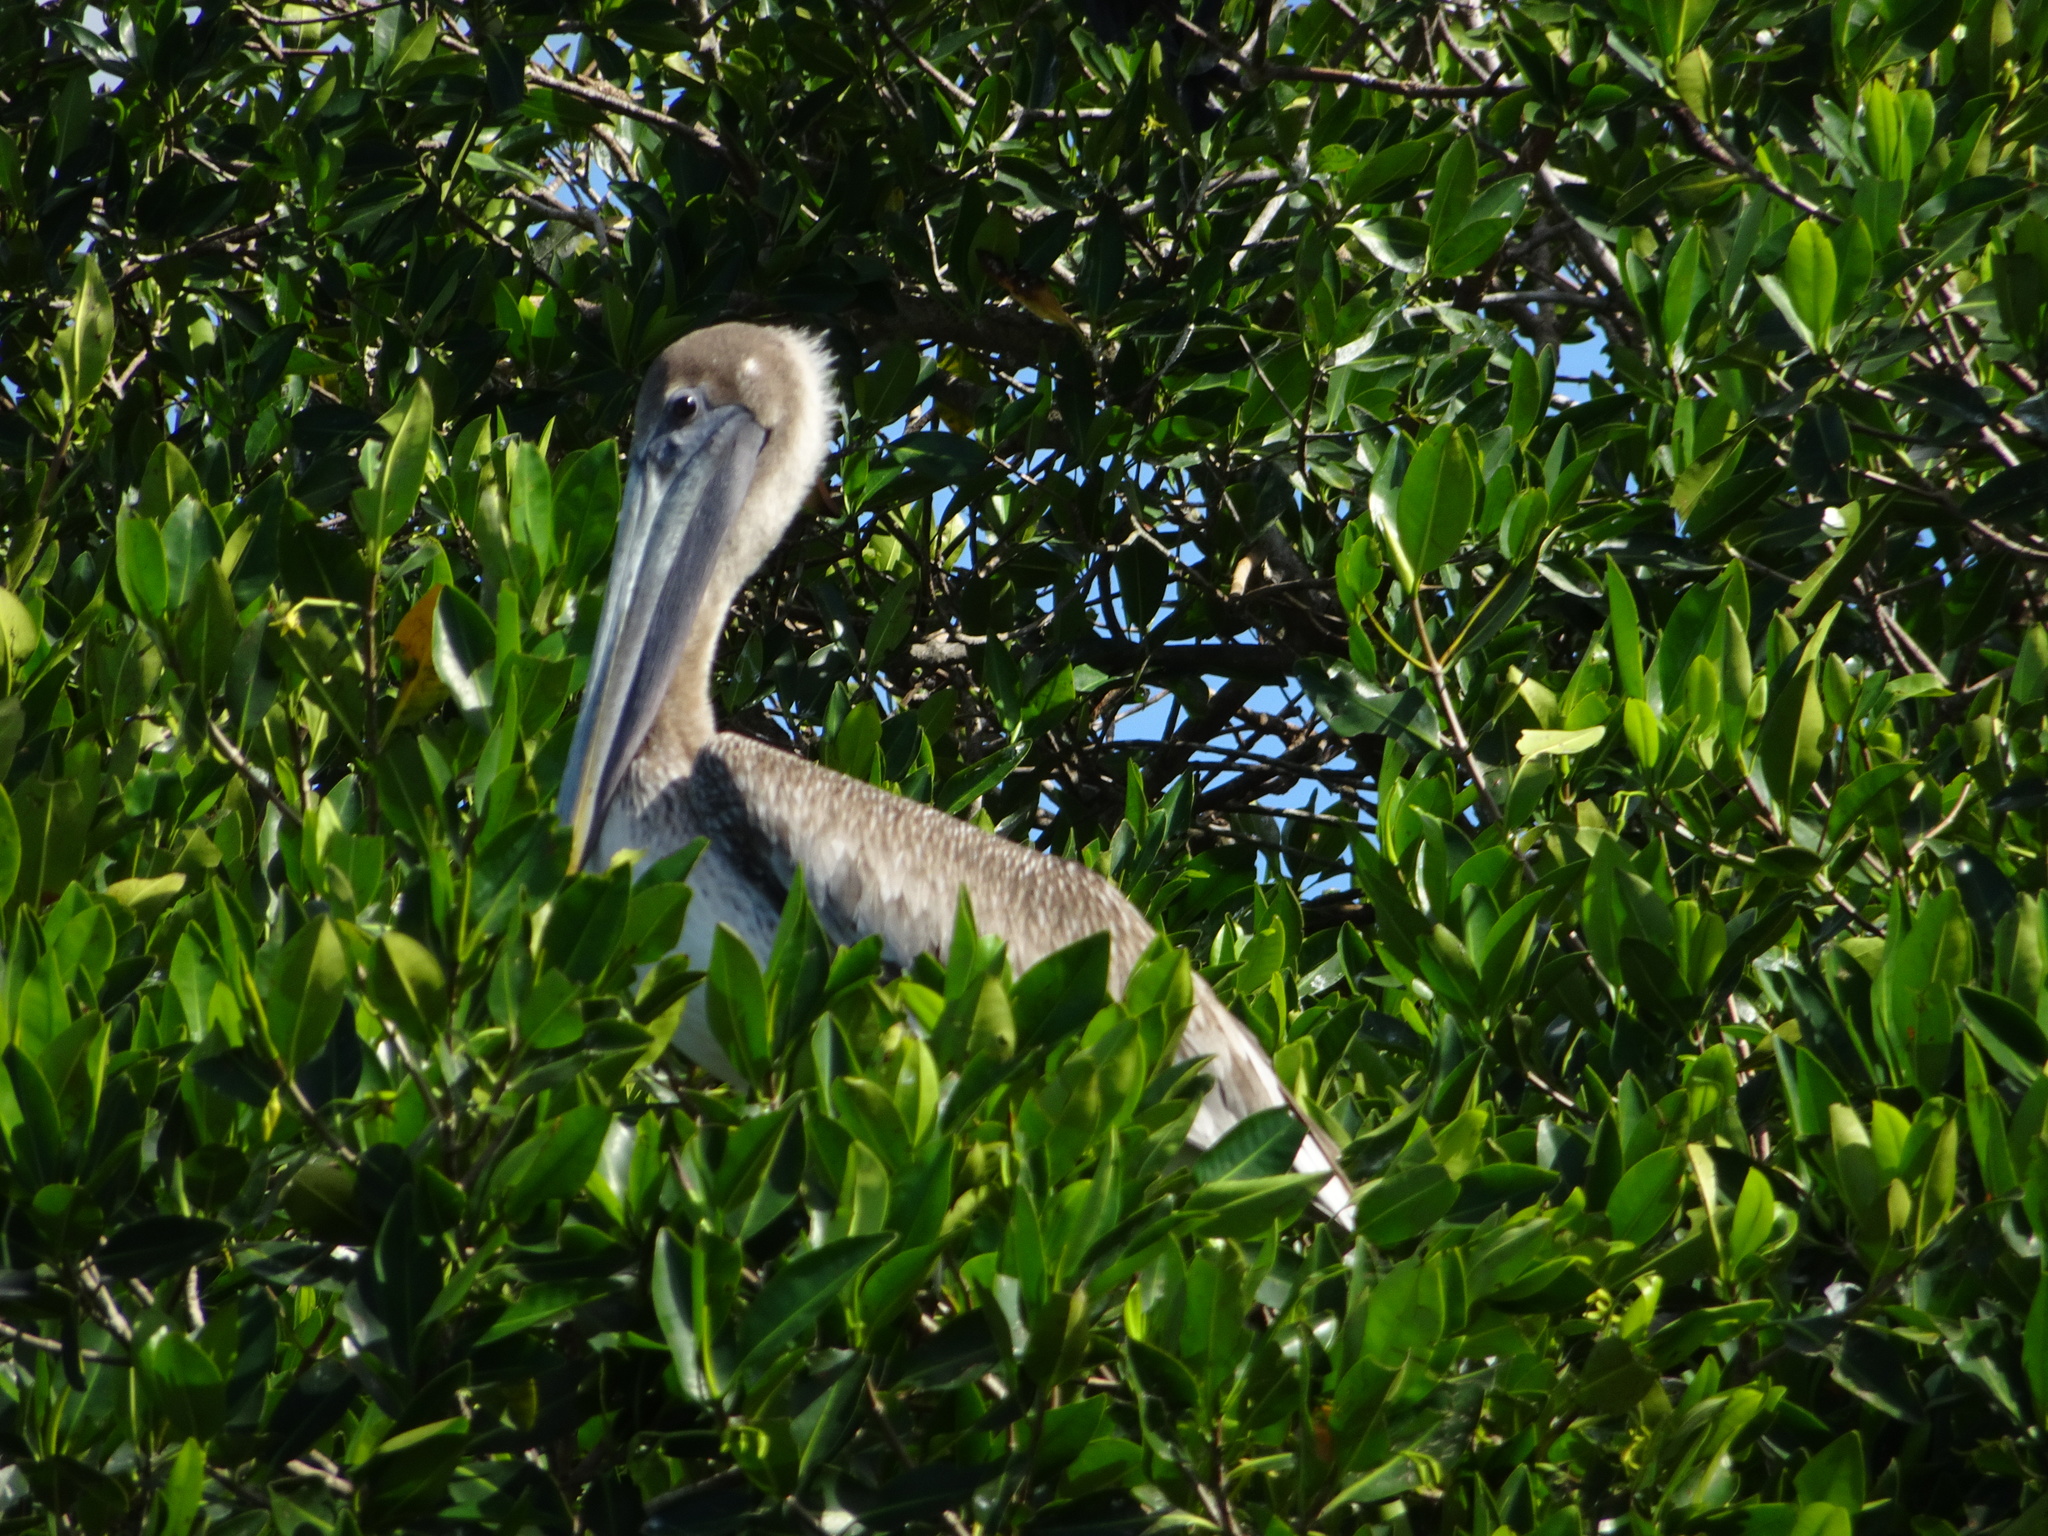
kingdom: Animalia
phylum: Chordata
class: Aves
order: Pelecaniformes
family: Pelecanidae
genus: Pelecanus
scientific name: Pelecanus occidentalis
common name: Brown pelican
